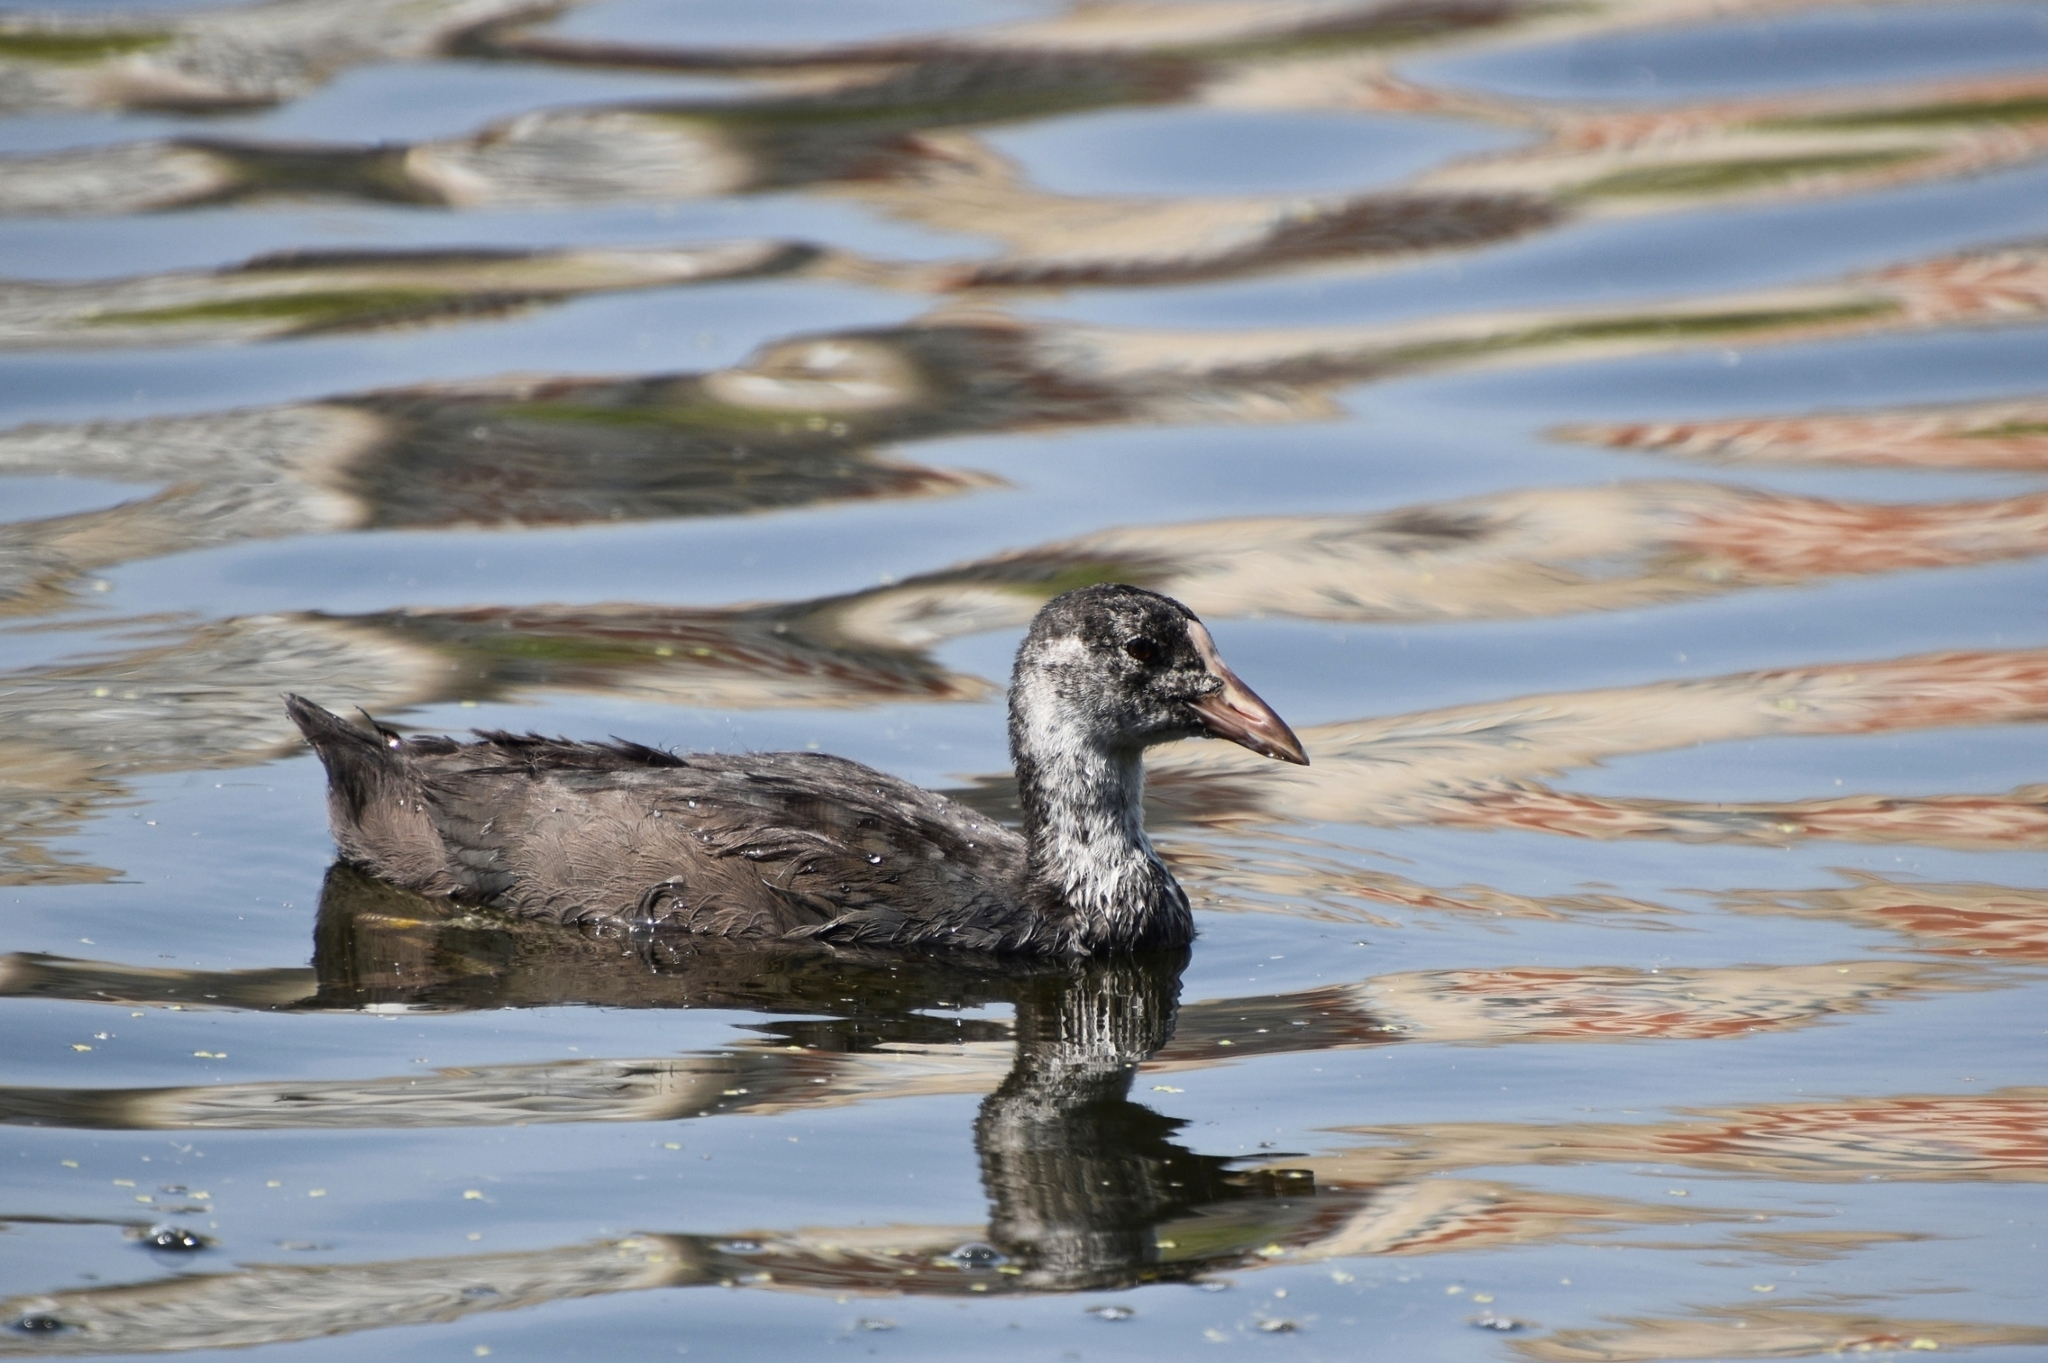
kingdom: Animalia
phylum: Chordata
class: Aves
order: Gruiformes
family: Rallidae
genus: Fulica
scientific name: Fulica atra
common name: Eurasian coot
